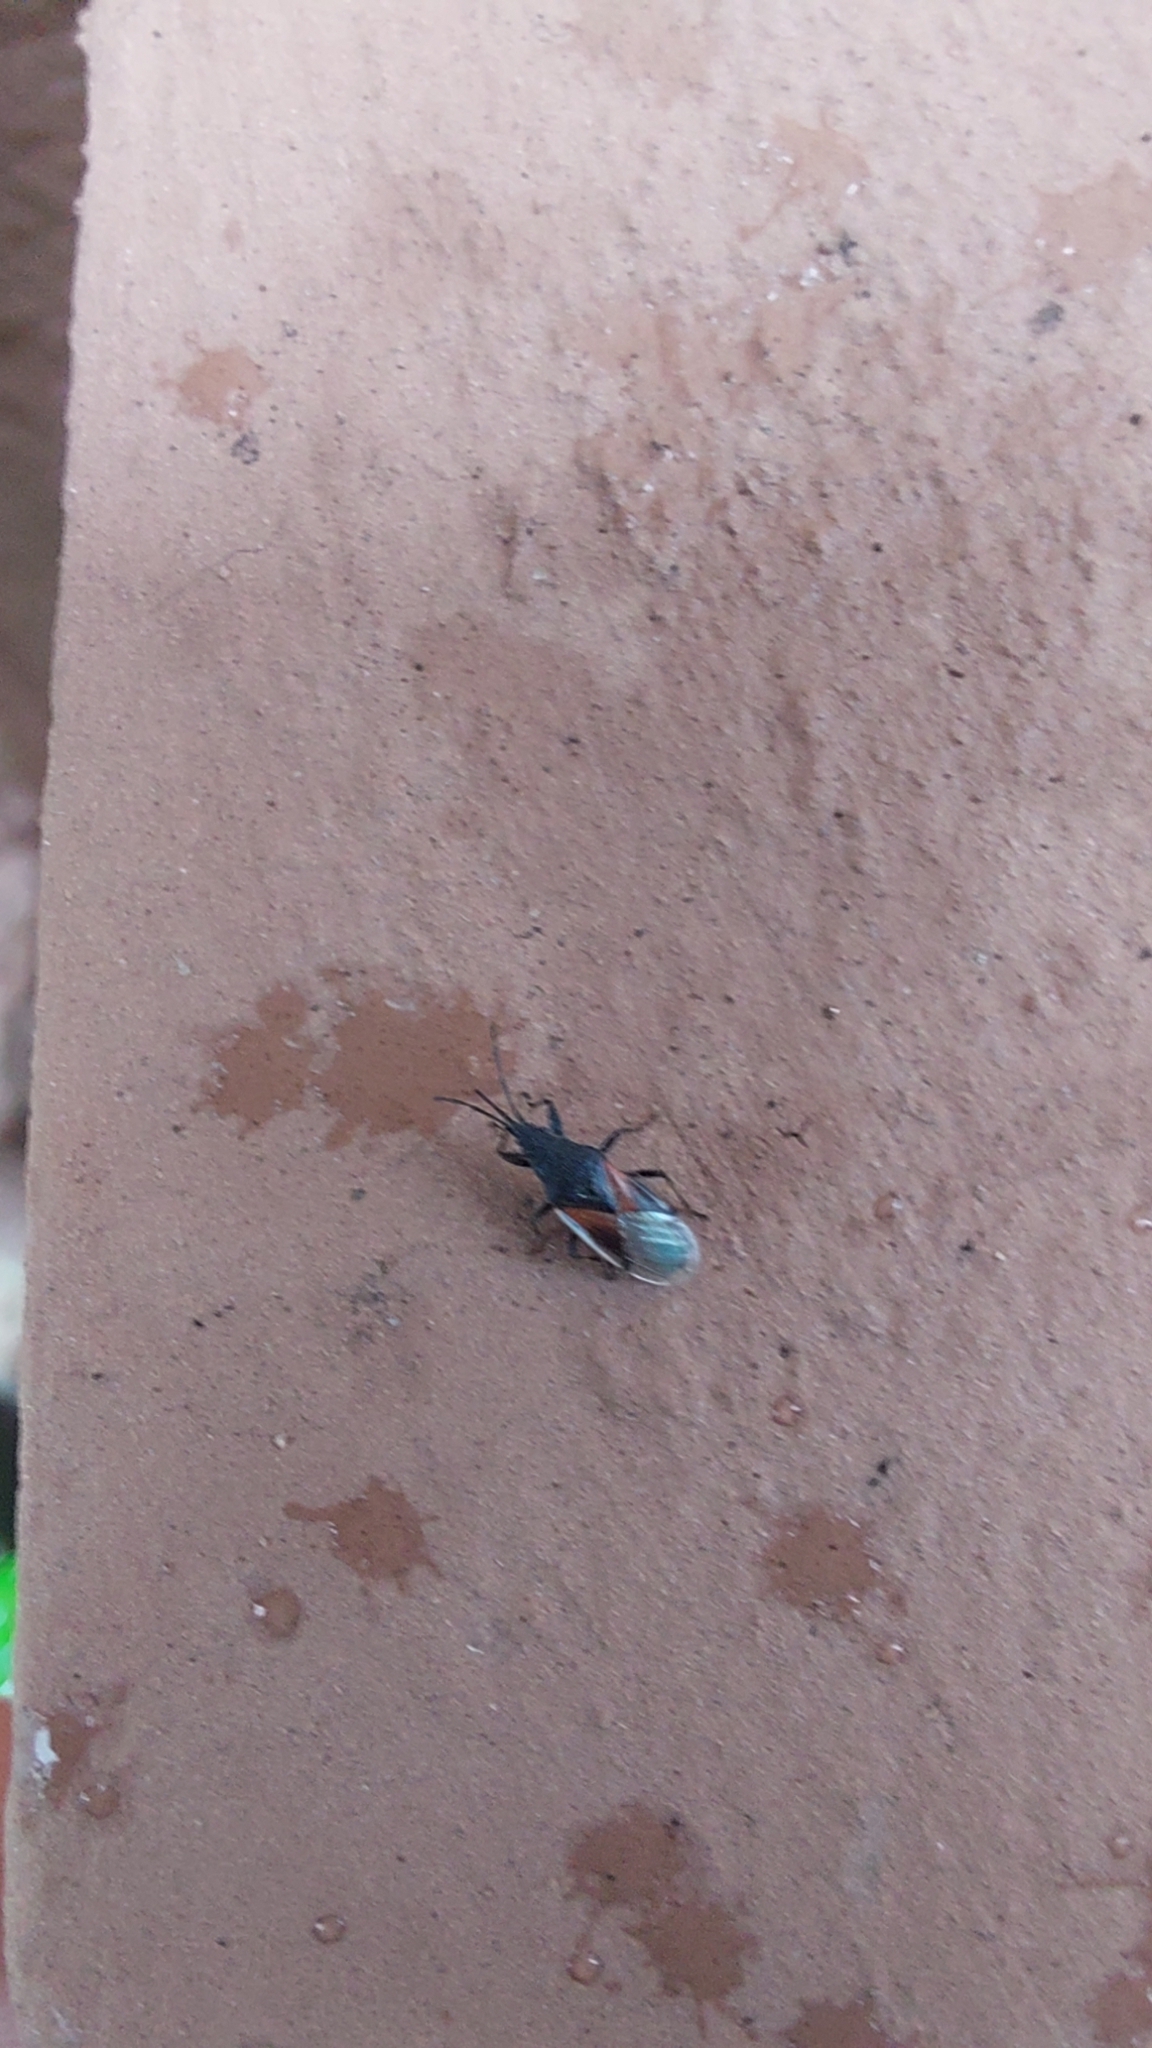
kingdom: Animalia
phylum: Arthropoda
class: Insecta
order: Hemiptera
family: Oxycarenidae
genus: Oxycarenus
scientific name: Oxycarenus lavaterae
